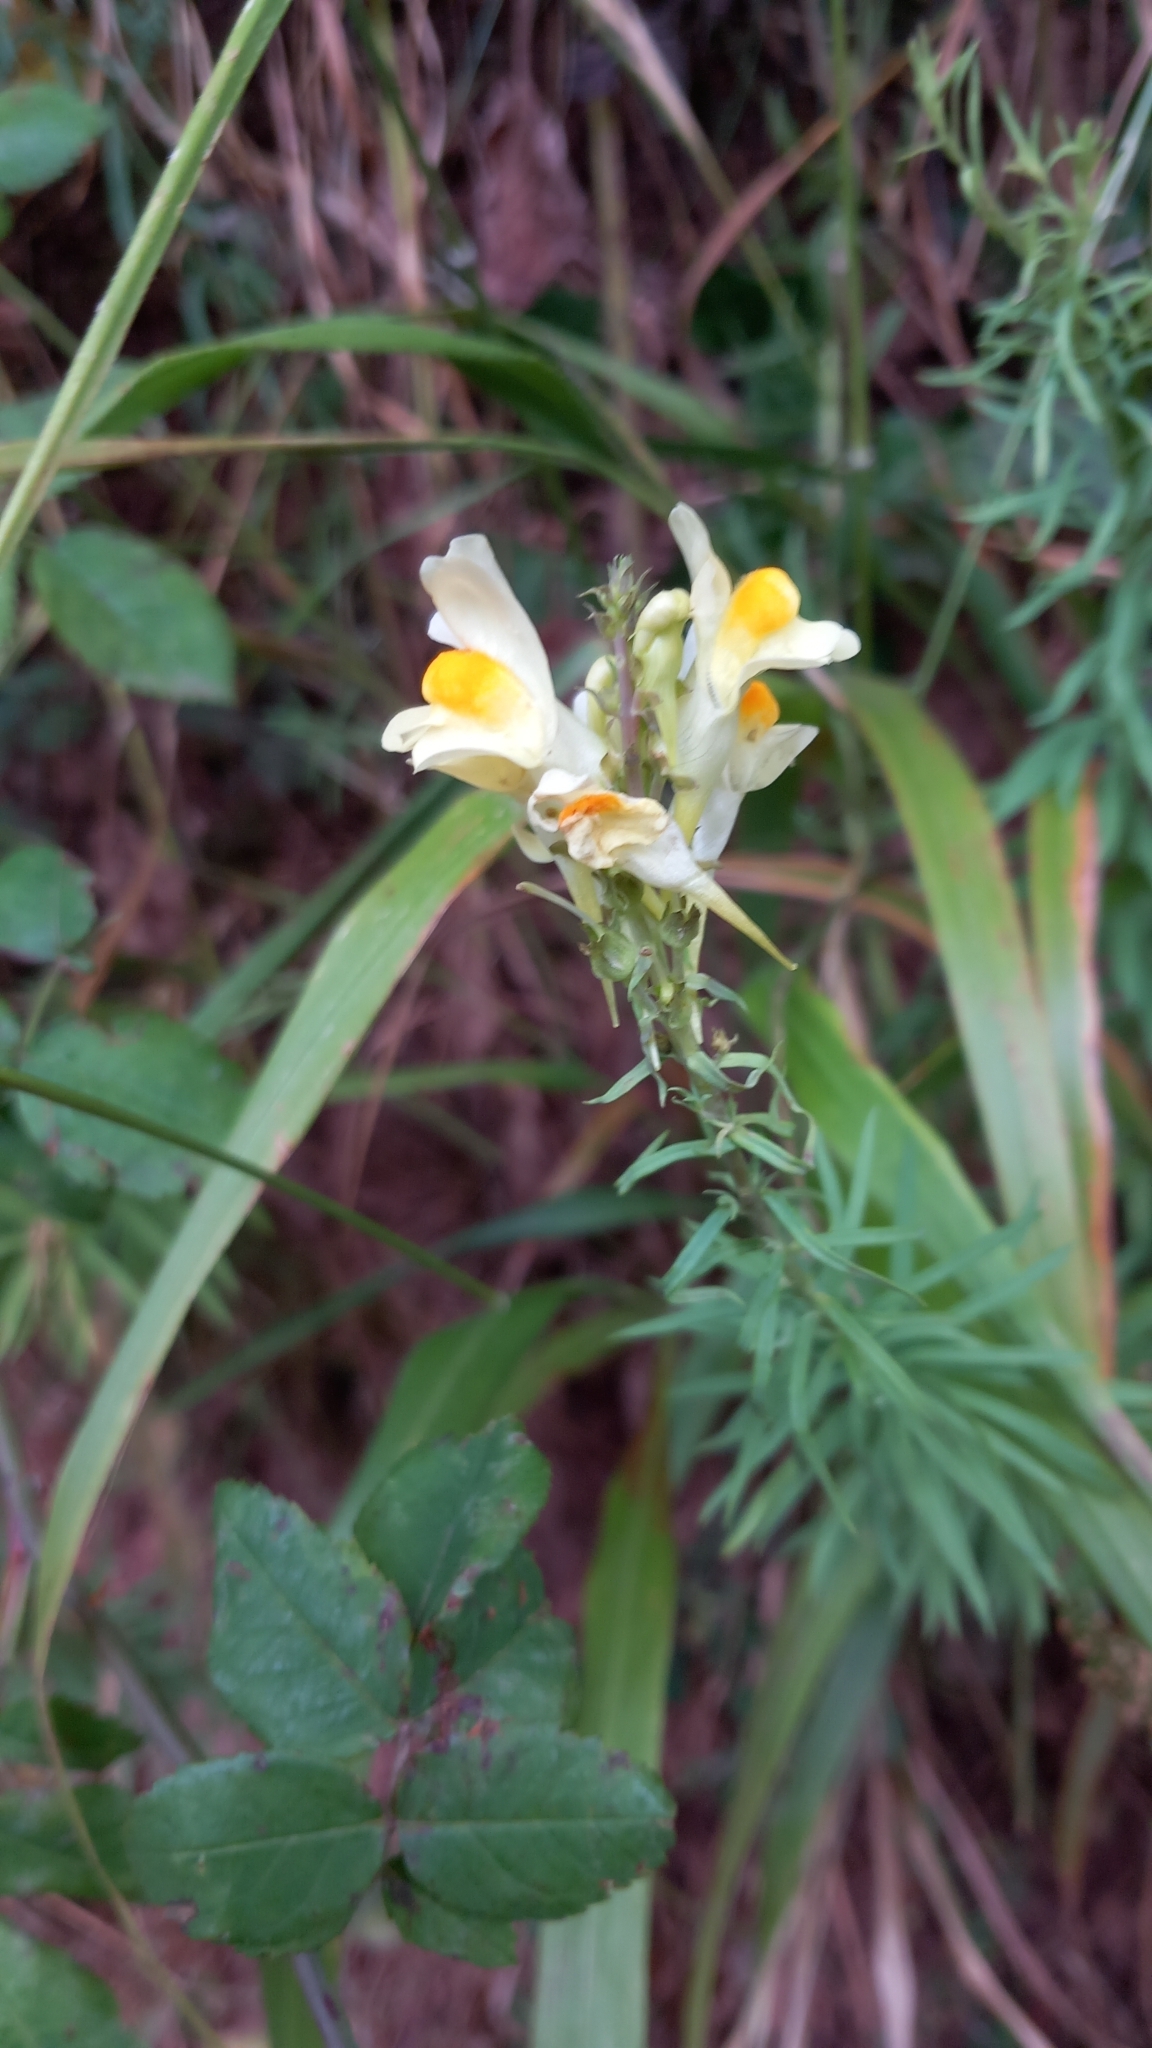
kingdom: Plantae
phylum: Tracheophyta
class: Magnoliopsida
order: Lamiales
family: Plantaginaceae
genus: Linaria
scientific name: Linaria vulgaris
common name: Butter and eggs
